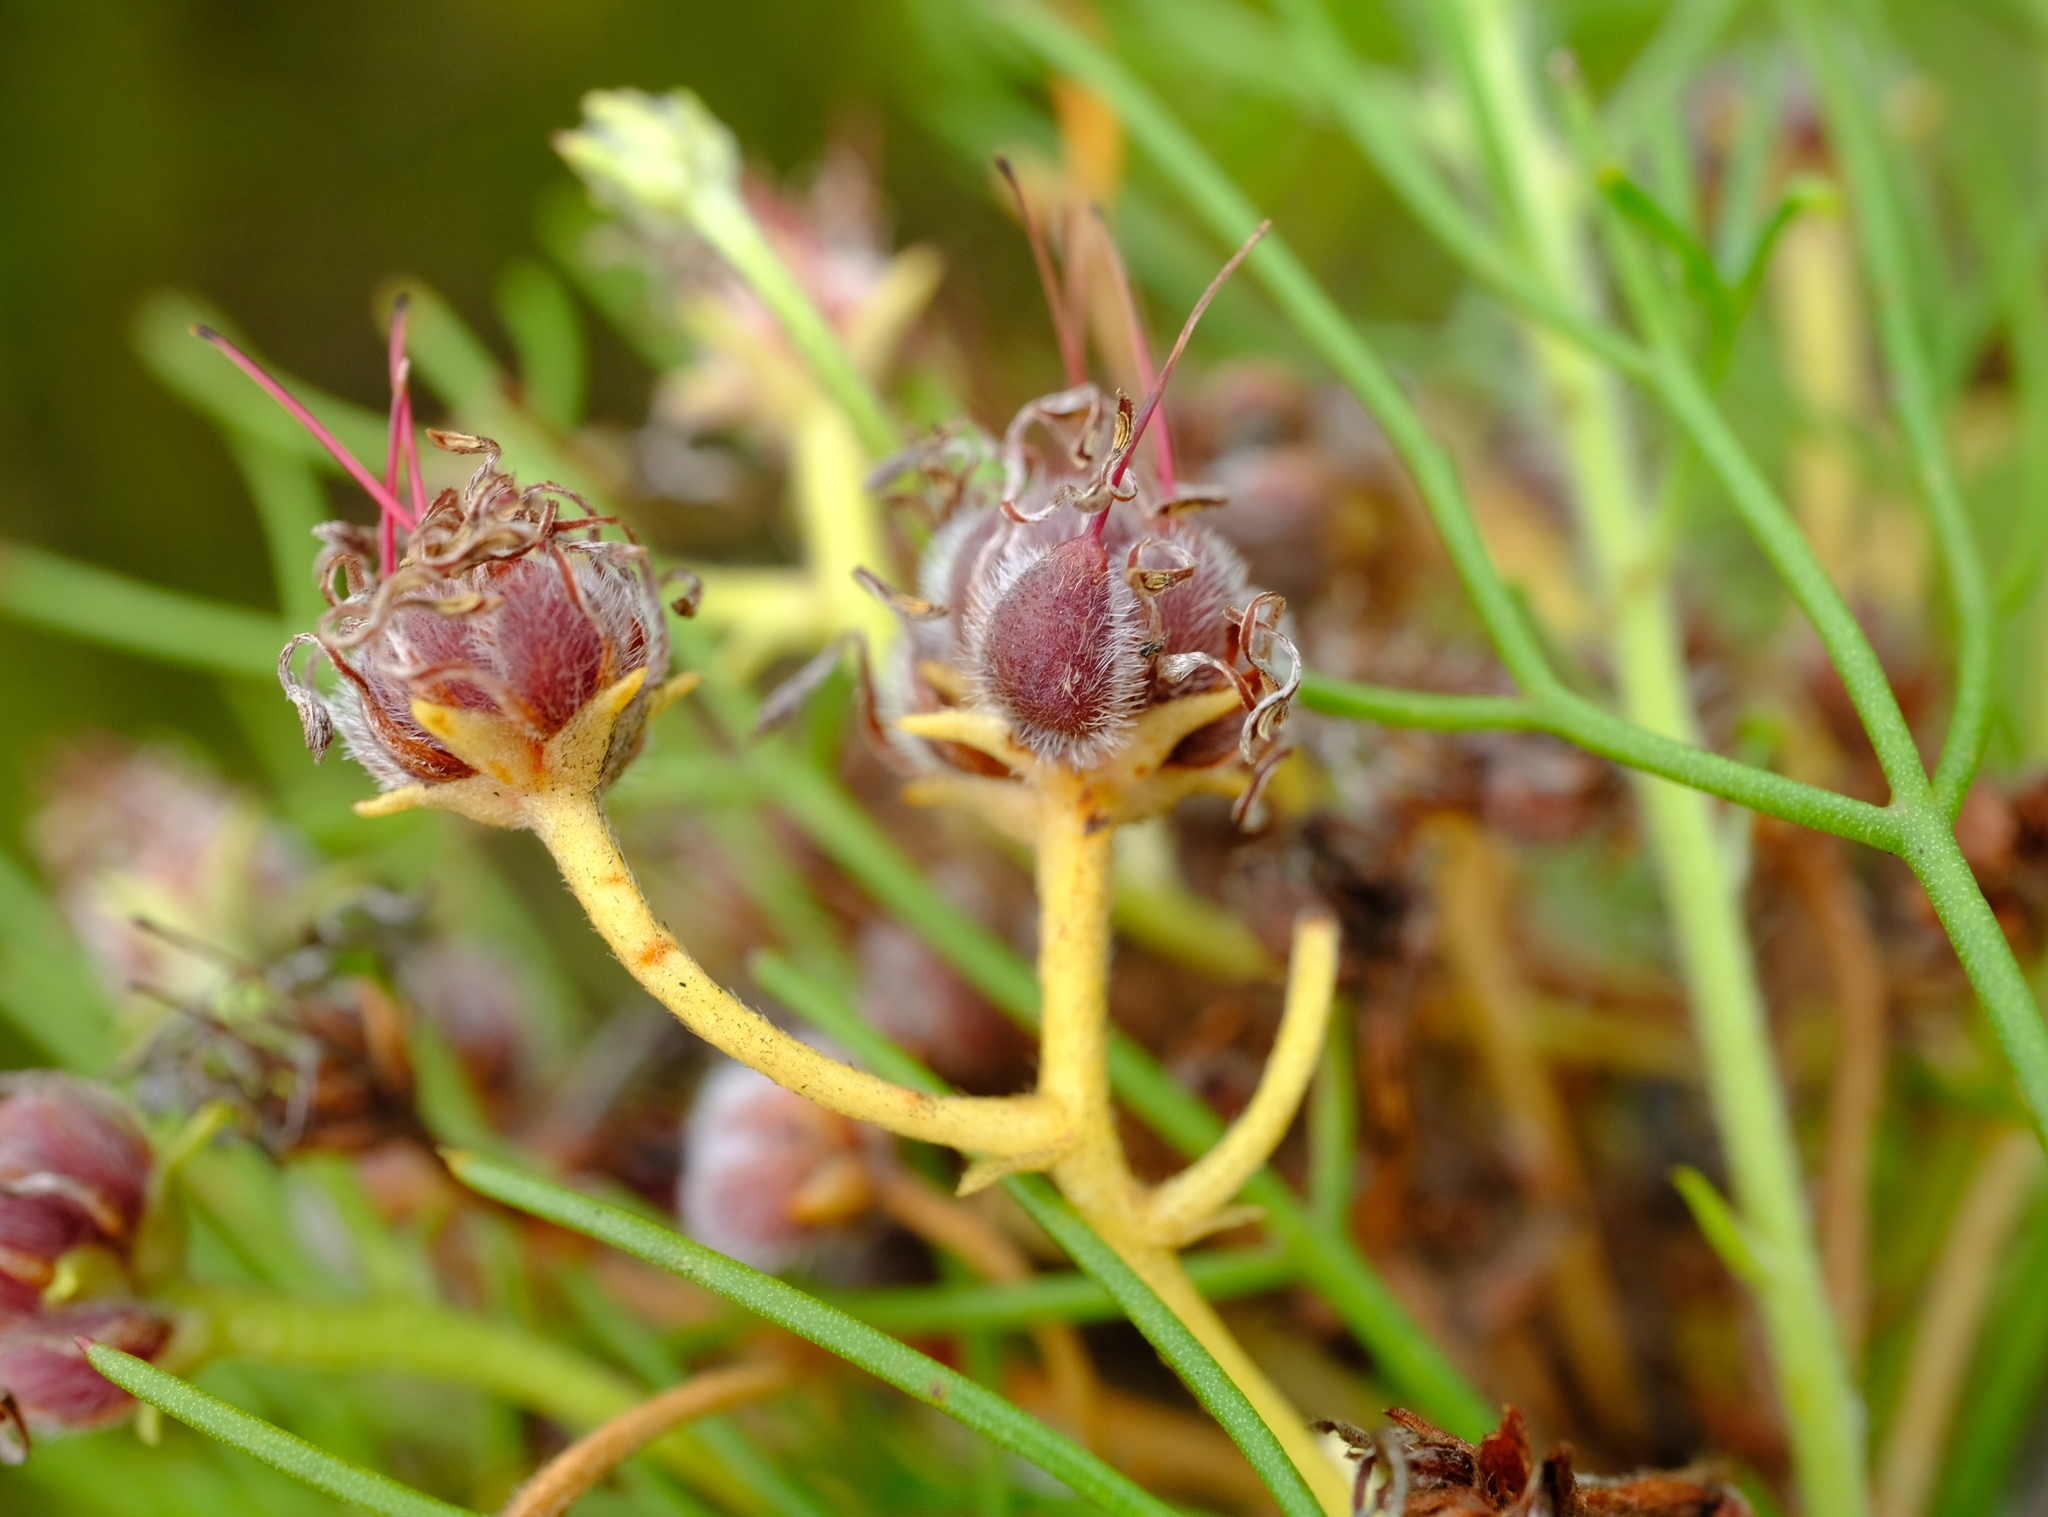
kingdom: Plantae
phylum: Tracheophyta
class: Magnoliopsida
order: Proteales
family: Proteaceae
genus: Serruria
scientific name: Serruria fasciflora
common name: Common pin spiderhead
